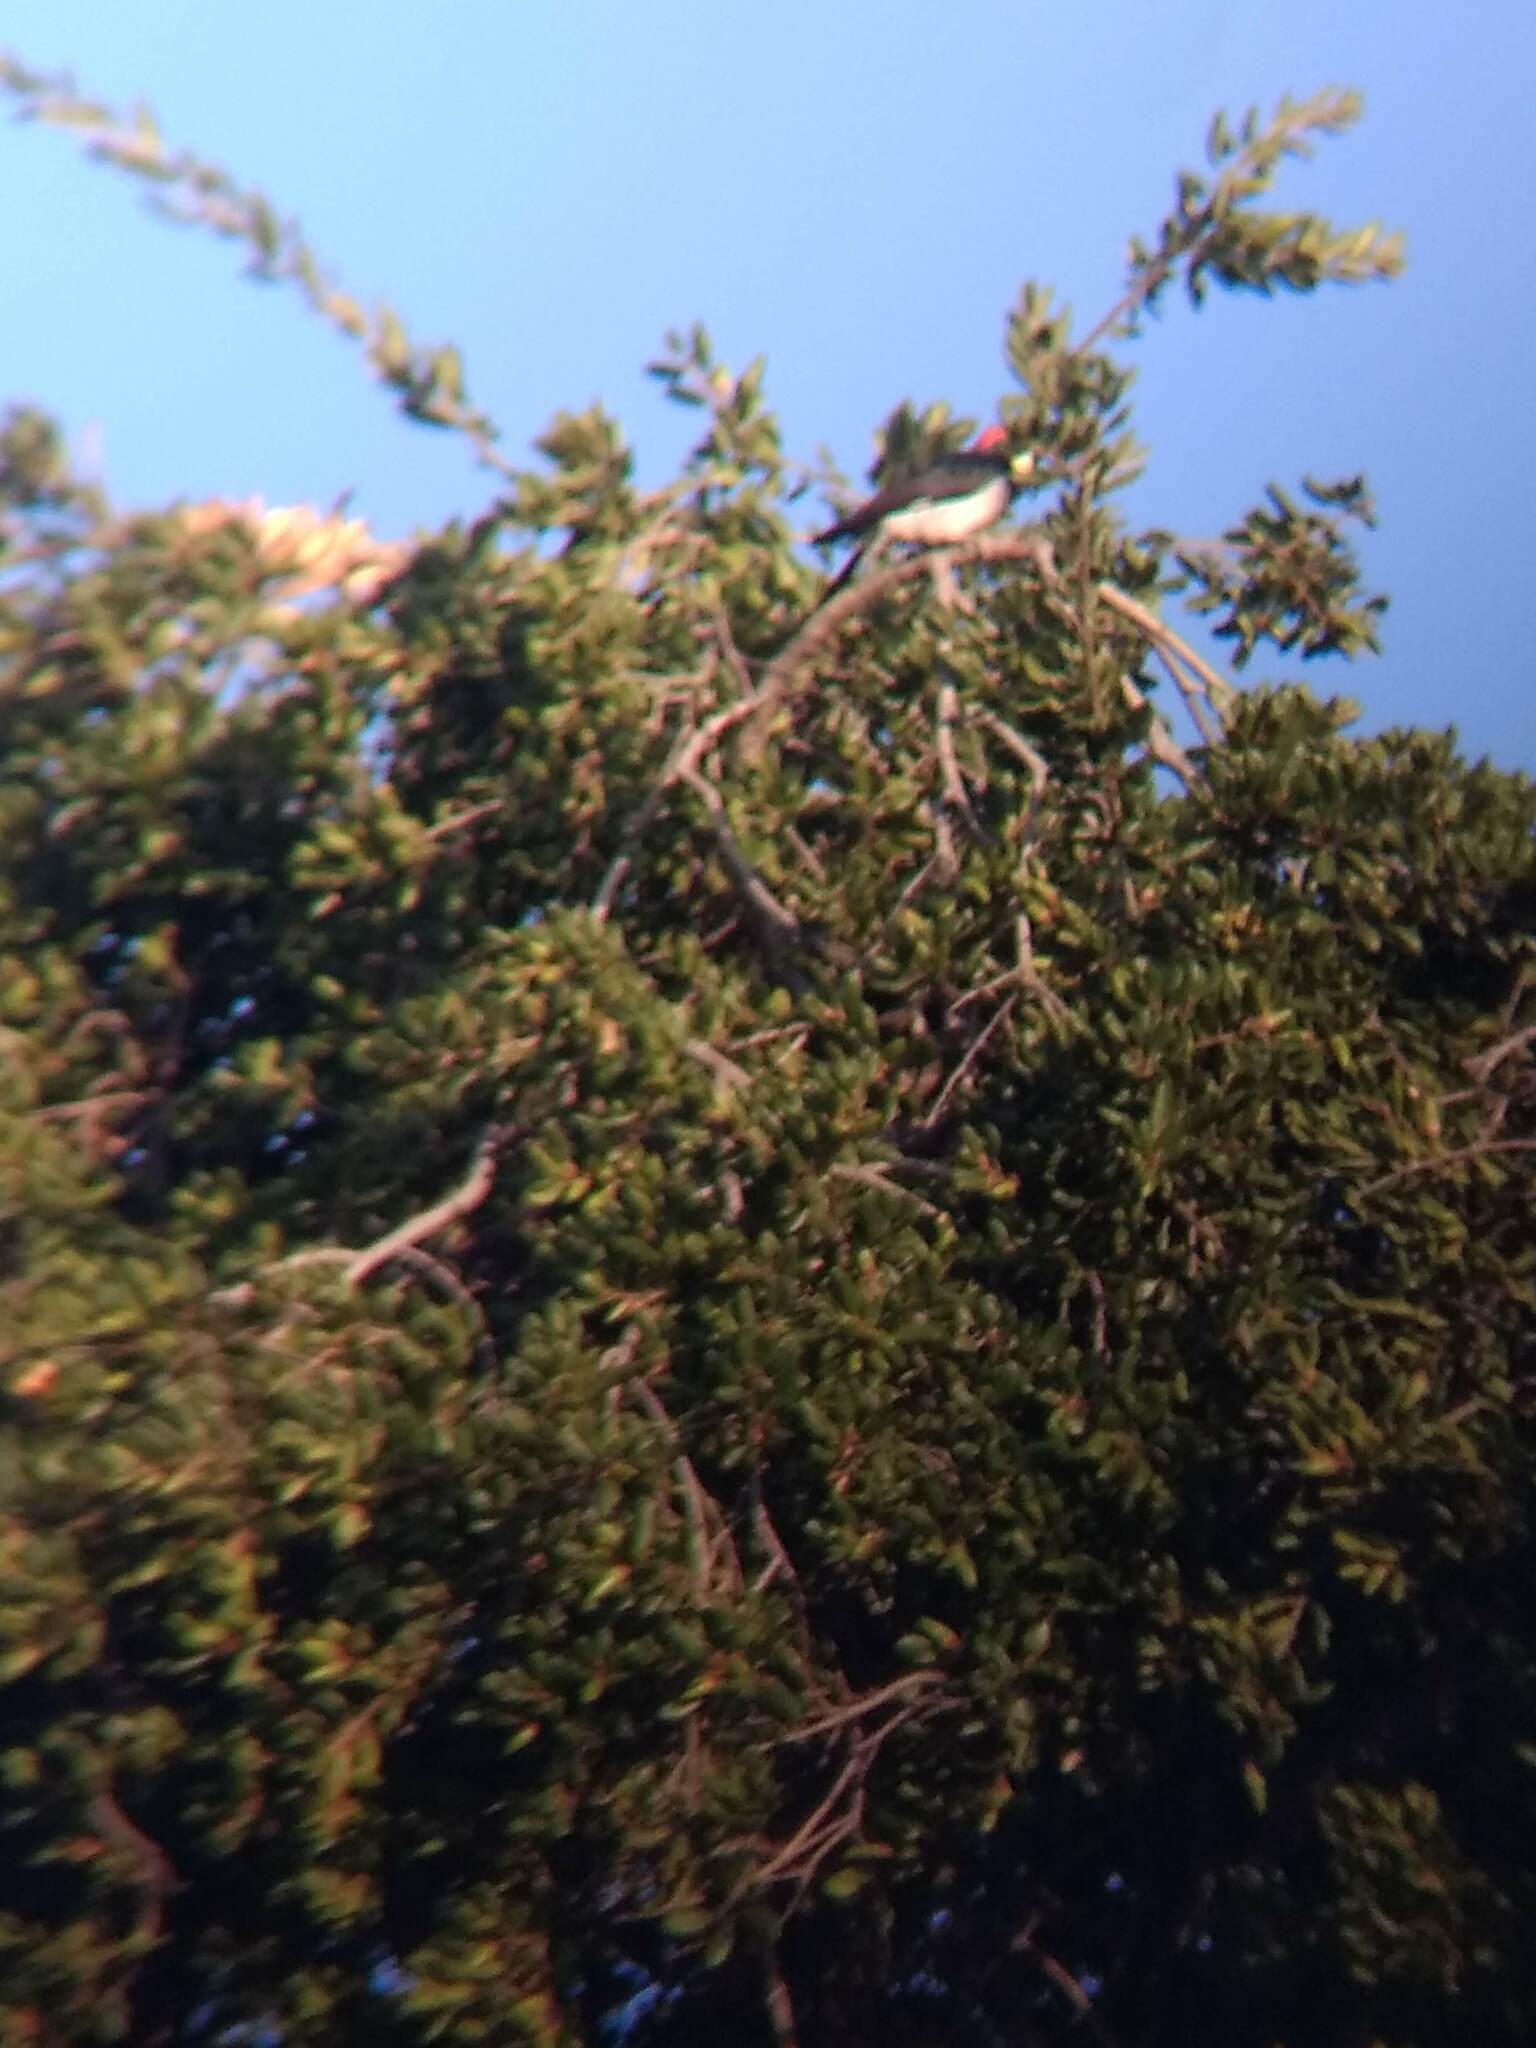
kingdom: Animalia
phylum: Chordata
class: Aves
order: Piciformes
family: Picidae
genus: Melanerpes
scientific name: Melanerpes formicivorus
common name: Acorn woodpecker
